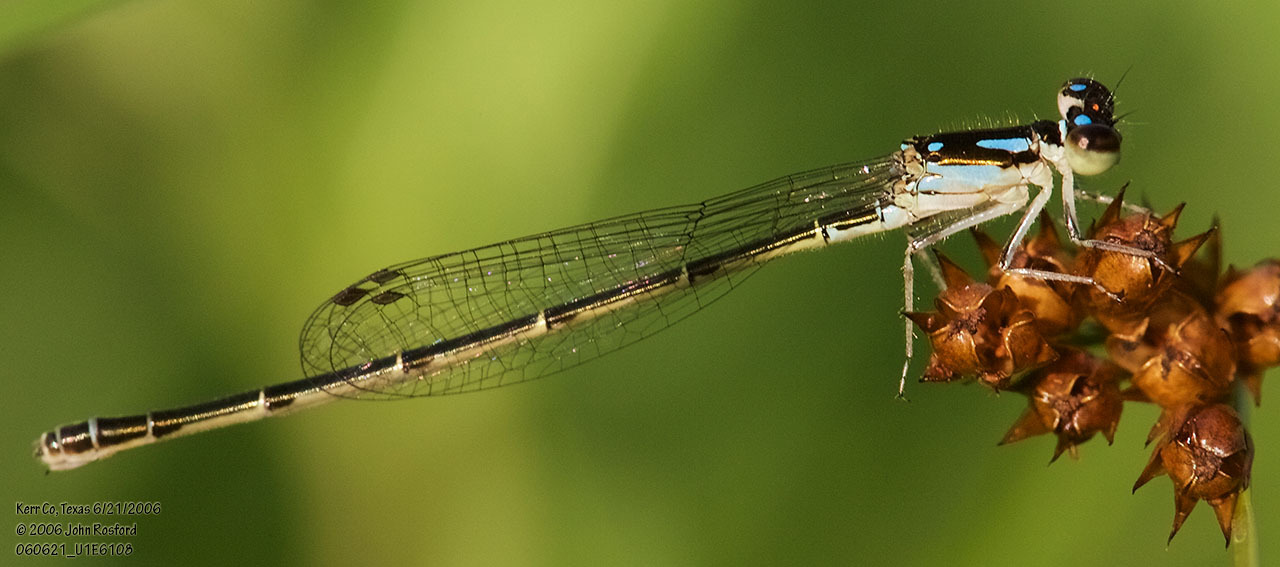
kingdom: Animalia
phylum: Arthropoda
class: Insecta
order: Odonata
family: Coenagrionidae
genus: Ischnura
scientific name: Ischnura posita
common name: Fragile forktail
